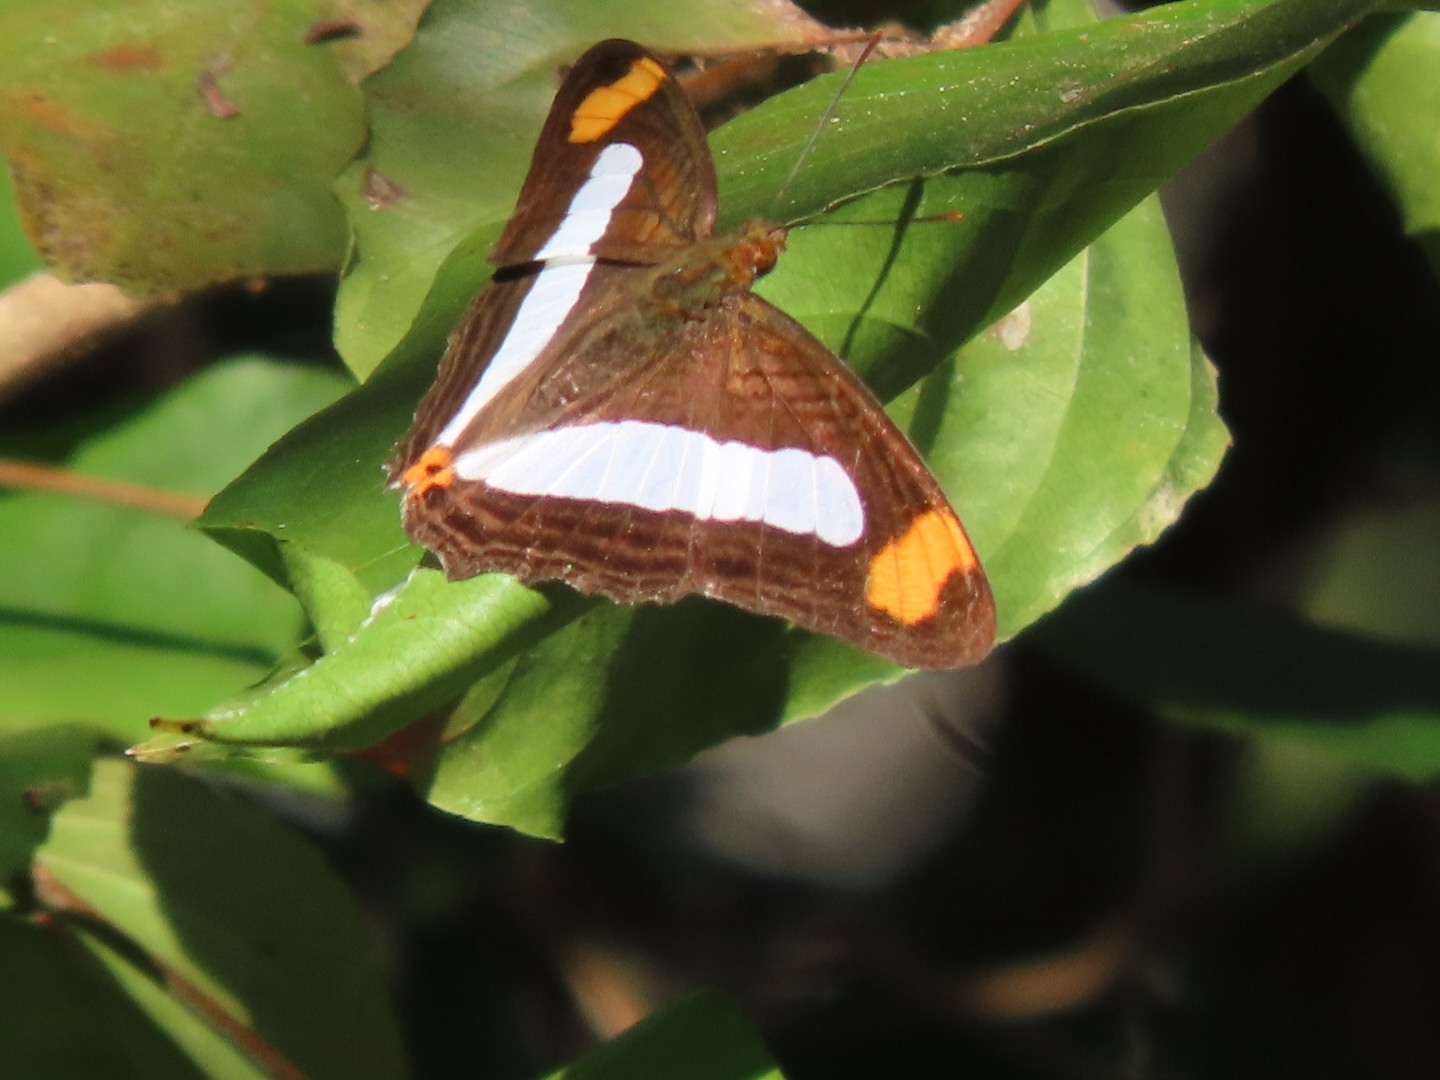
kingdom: Animalia
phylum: Arthropoda
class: Insecta
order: Lepidoptera
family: Nymphalidae
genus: Limenitis
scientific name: Limenitis fessonia
